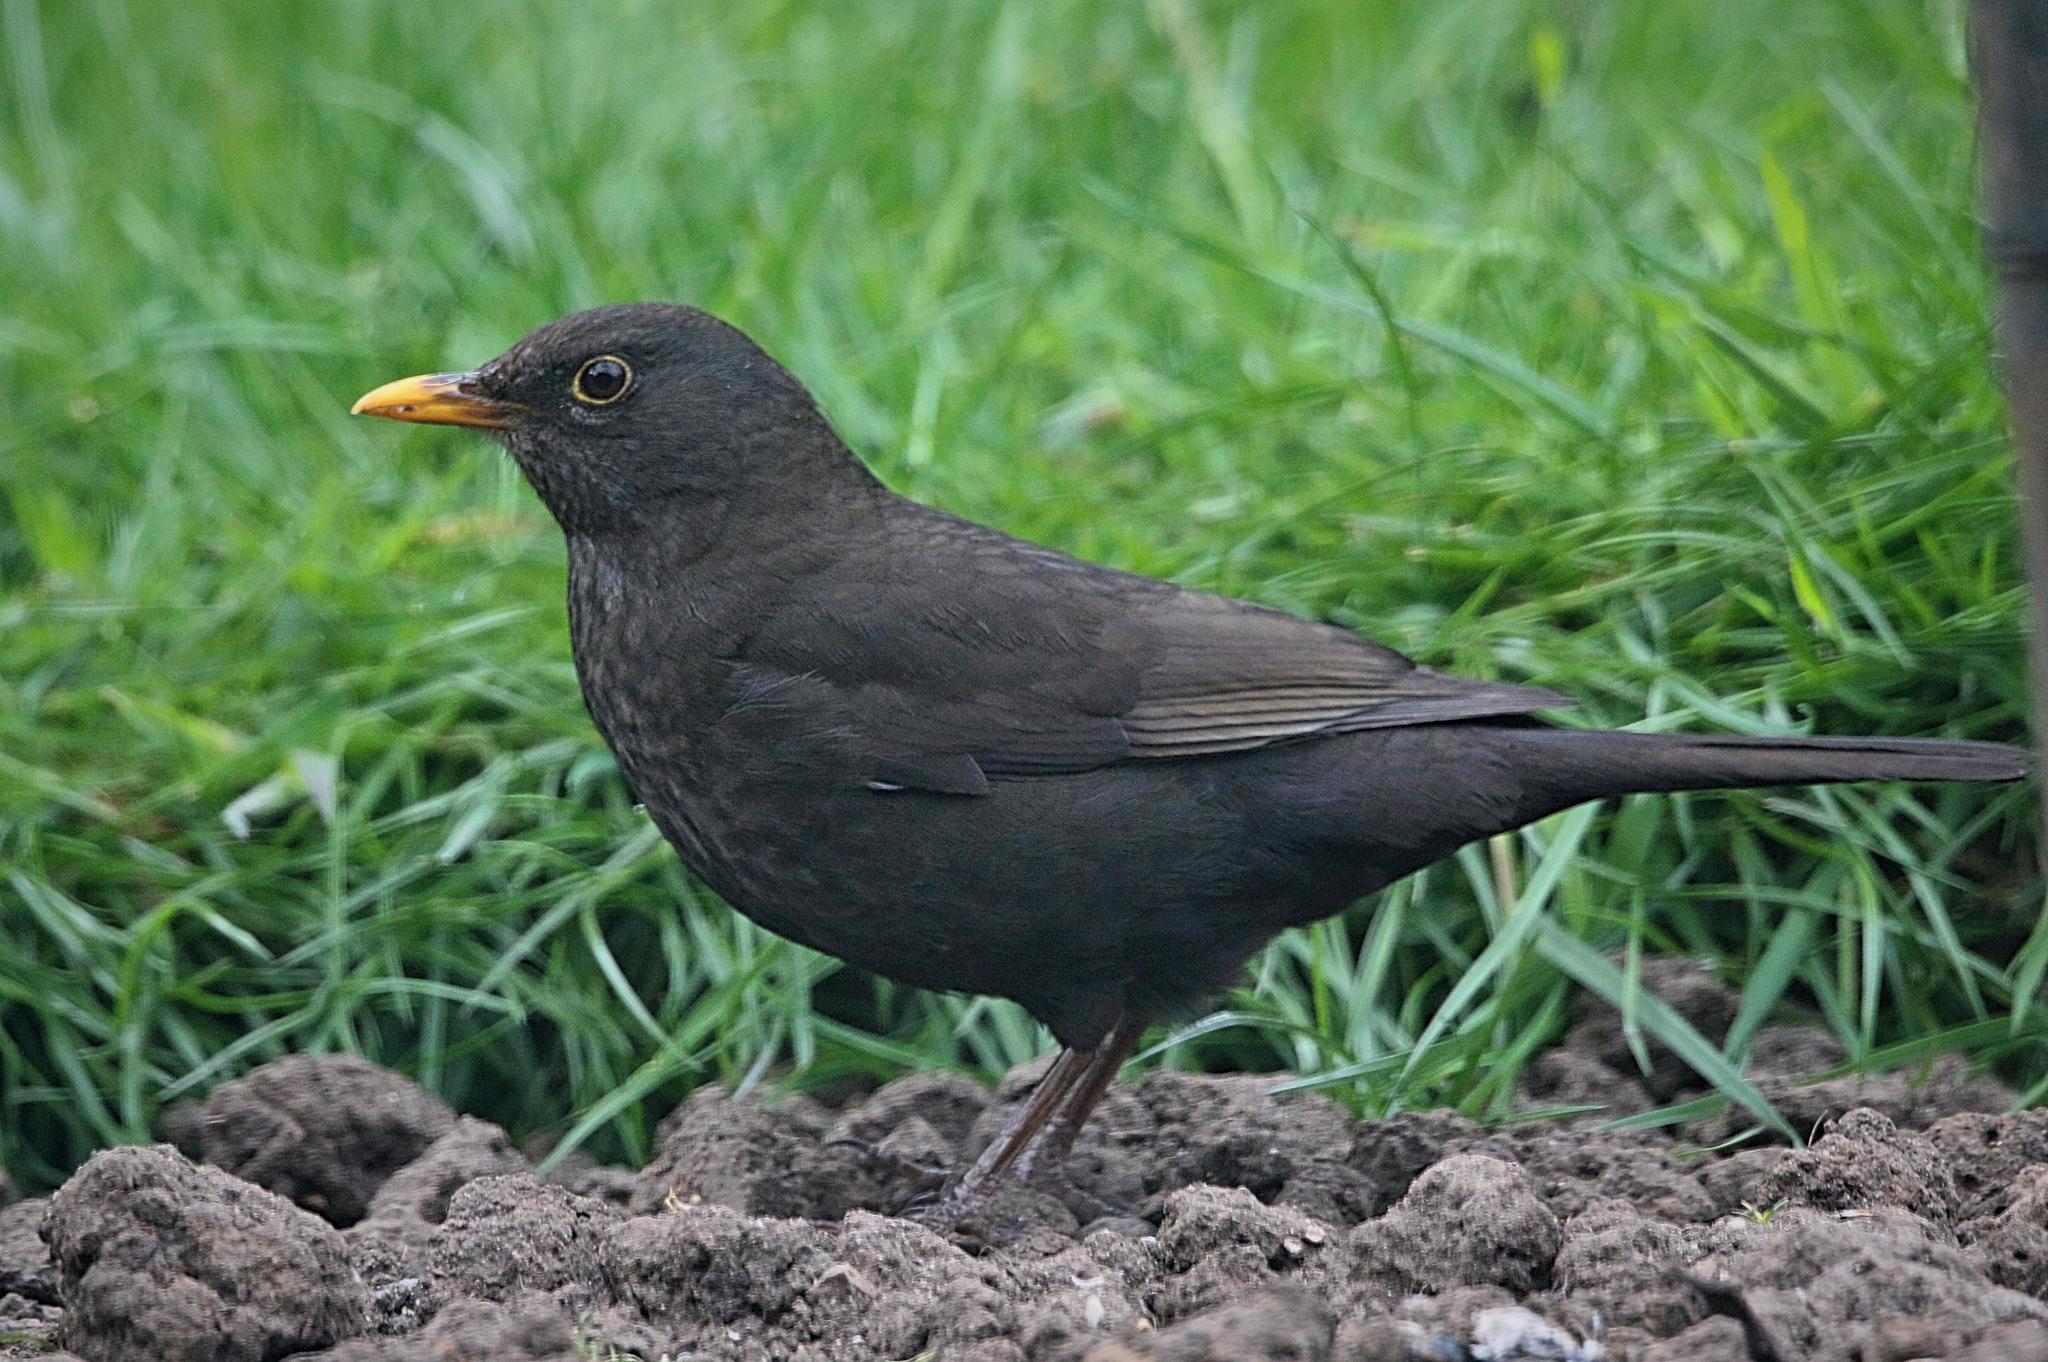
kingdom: Animalia
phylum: Chordata
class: Aves
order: Passeriformes
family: Turdidae
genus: Turdus
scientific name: Turdus merula
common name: Common blackbird
